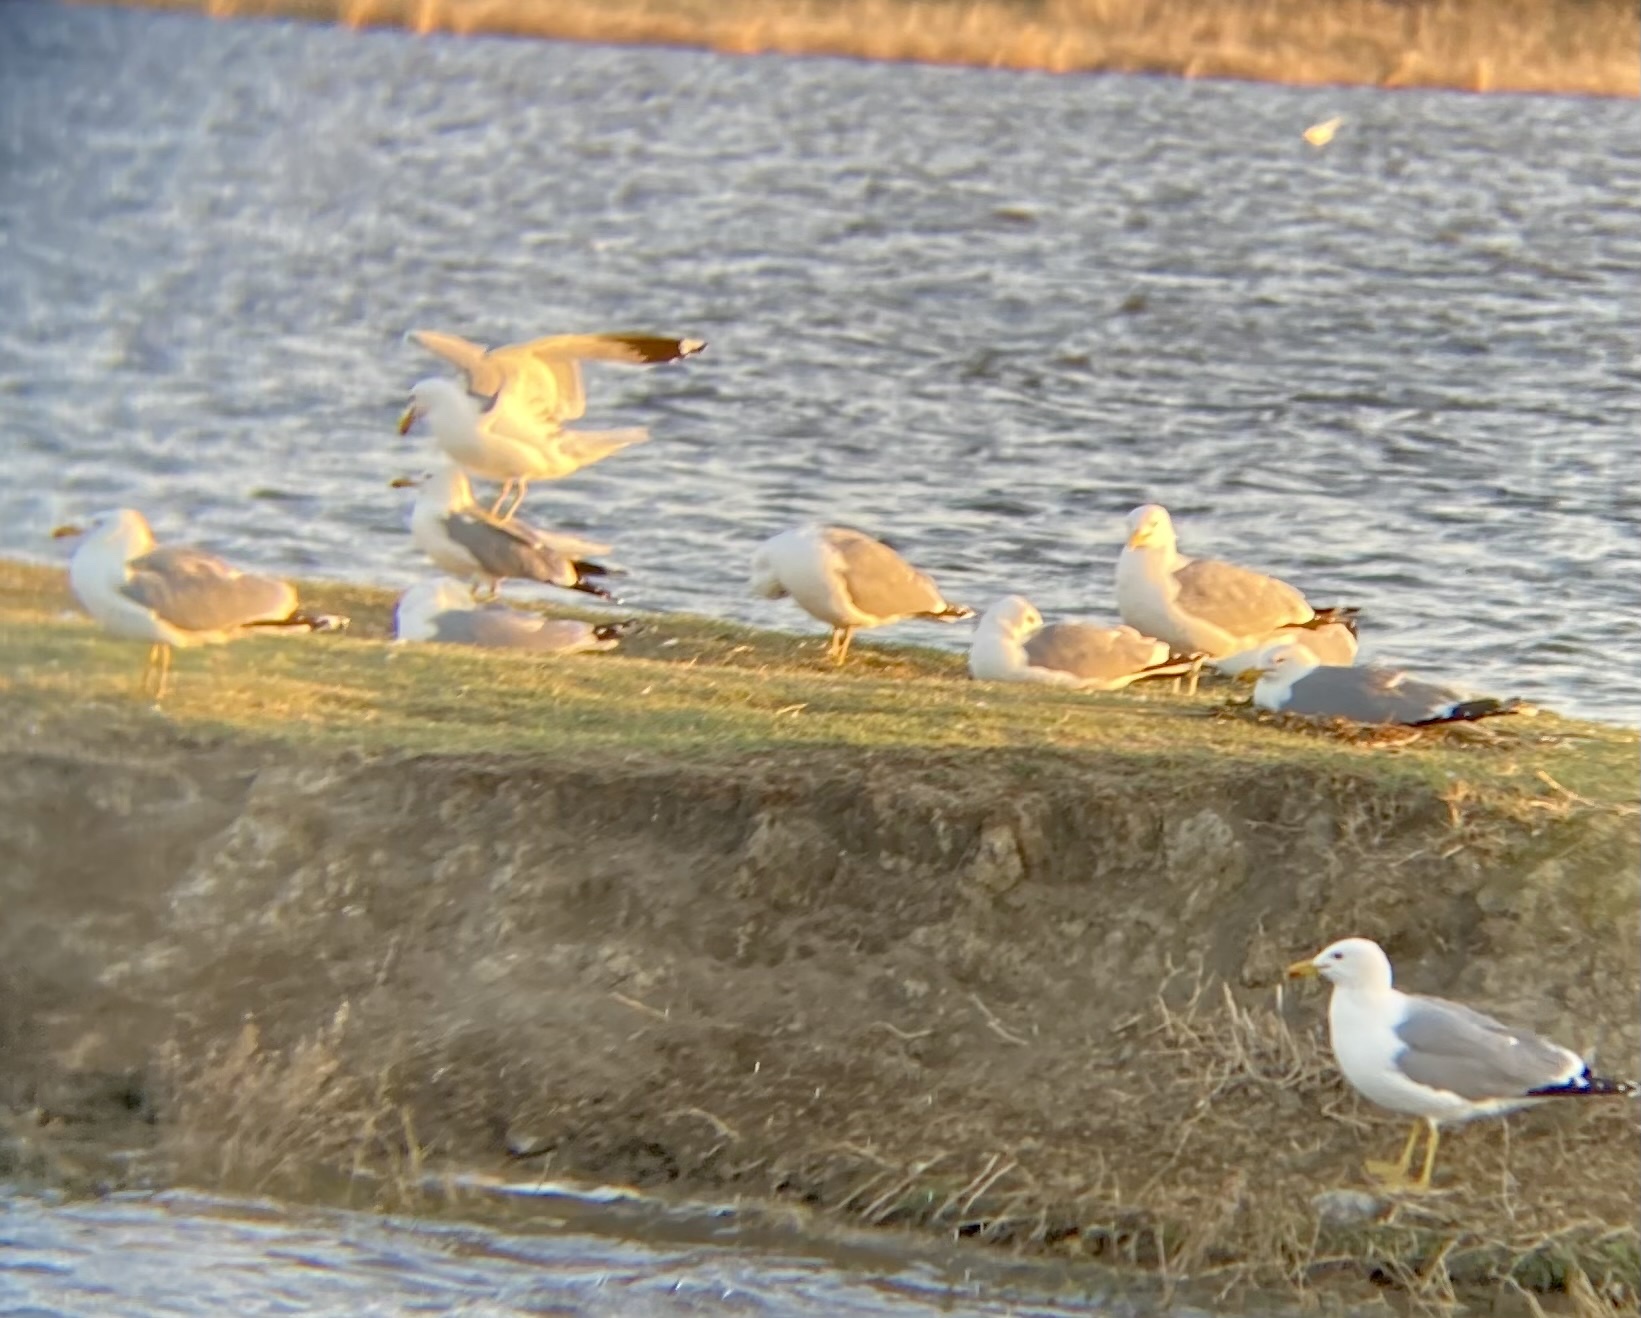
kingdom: Animalia
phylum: Chordata
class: Aves
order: Charadriiformes
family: Laridae
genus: Larus
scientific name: Larus californicus
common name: California gull
